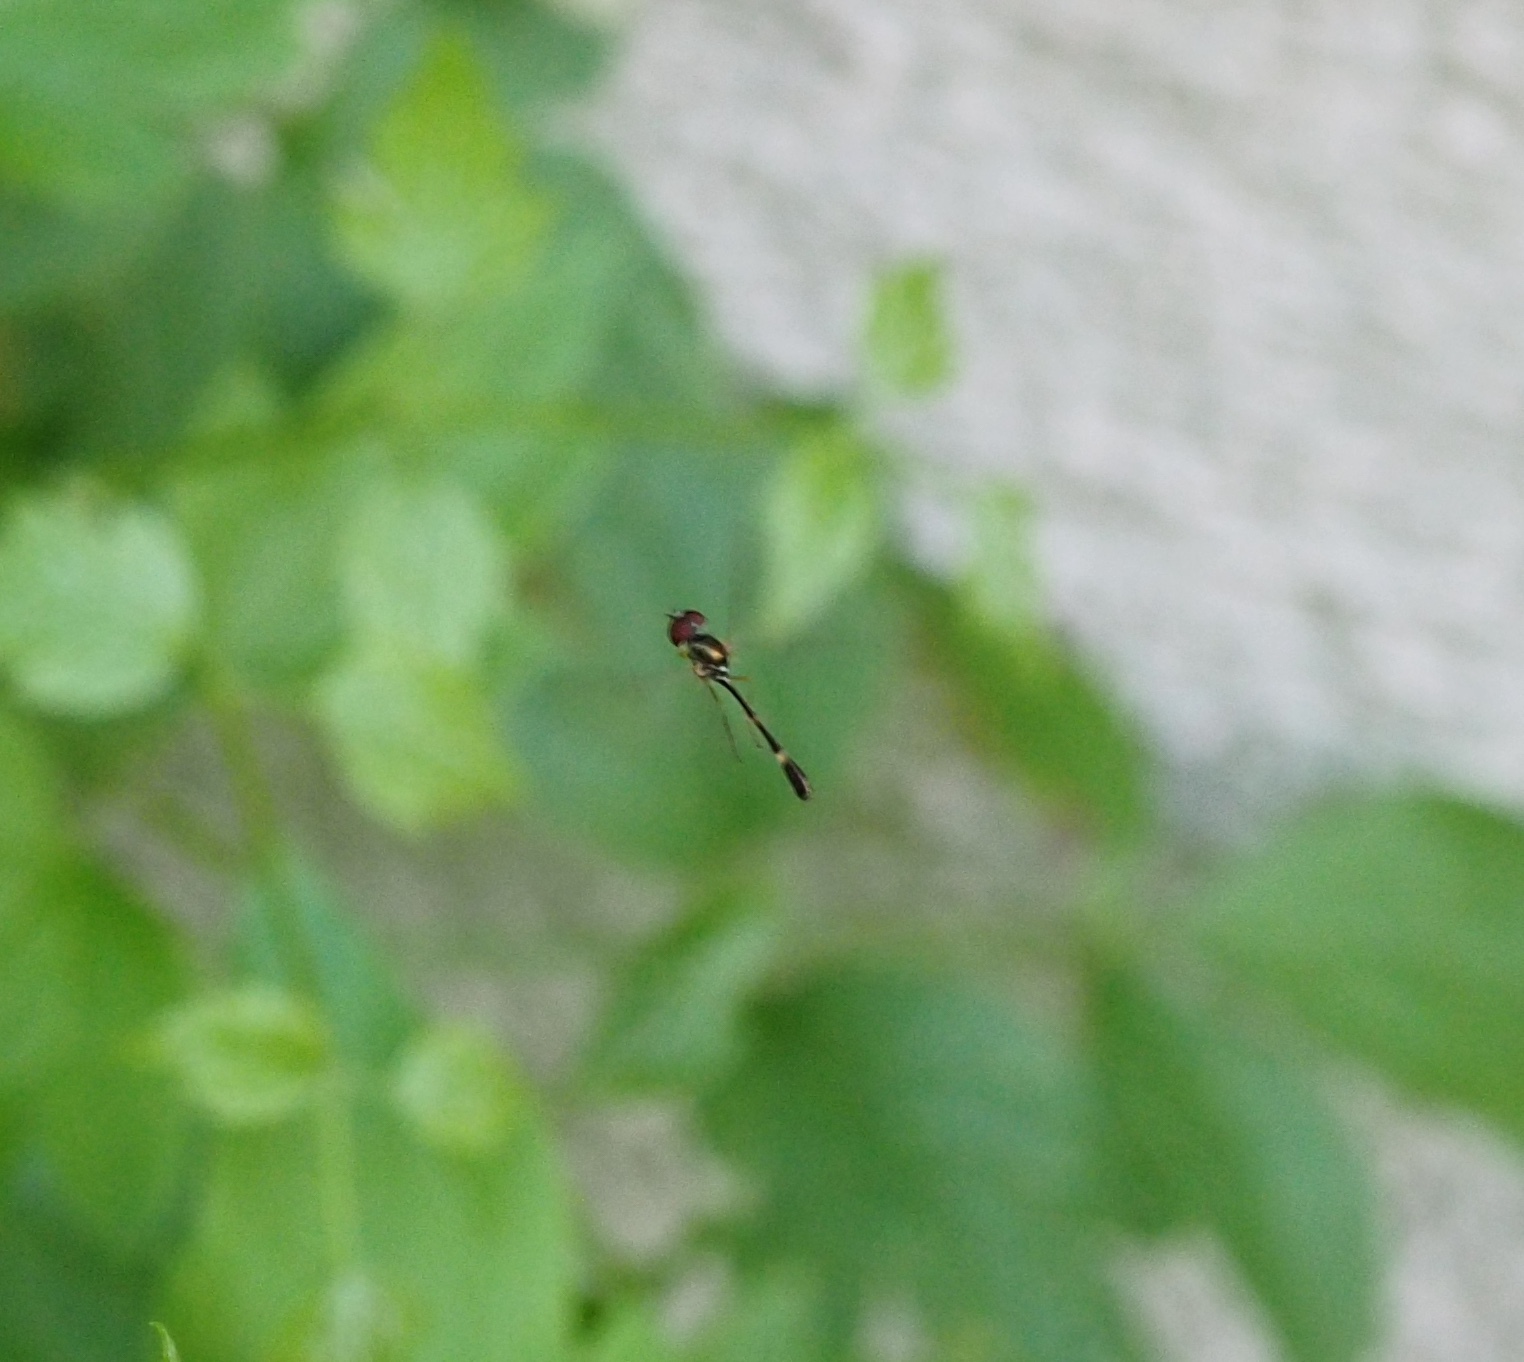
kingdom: Animalia
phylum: Arthropoda
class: Insecta
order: Diptera
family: Syrphidae
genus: Baccha
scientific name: Baccha elongata
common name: Common dainty
